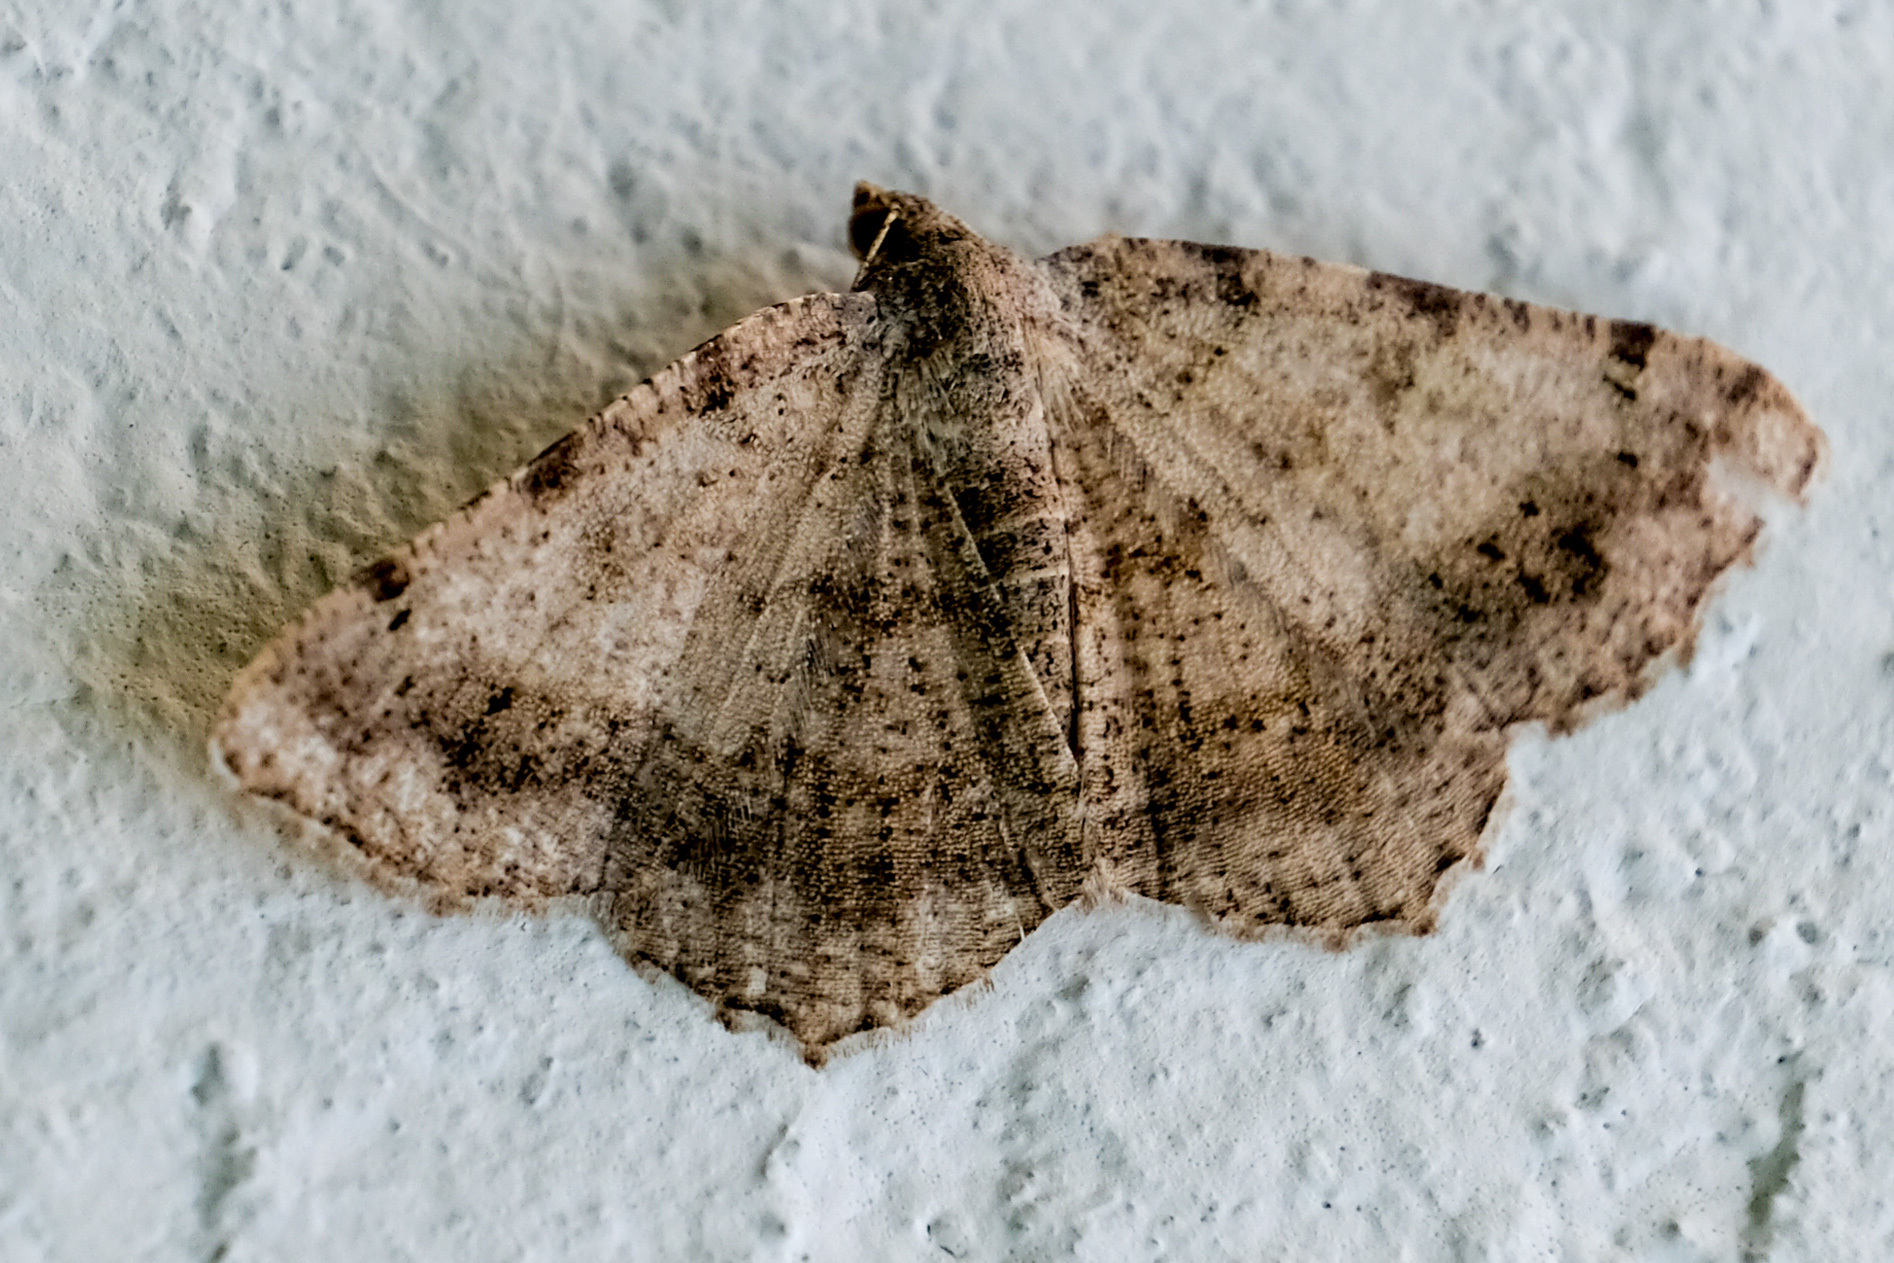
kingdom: Animalia
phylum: Arthropoda
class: Insecta
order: Lepidoptera
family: Geometridae
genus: Digrammia
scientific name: Digrammia ocellinata
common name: Faint-spotted angle
